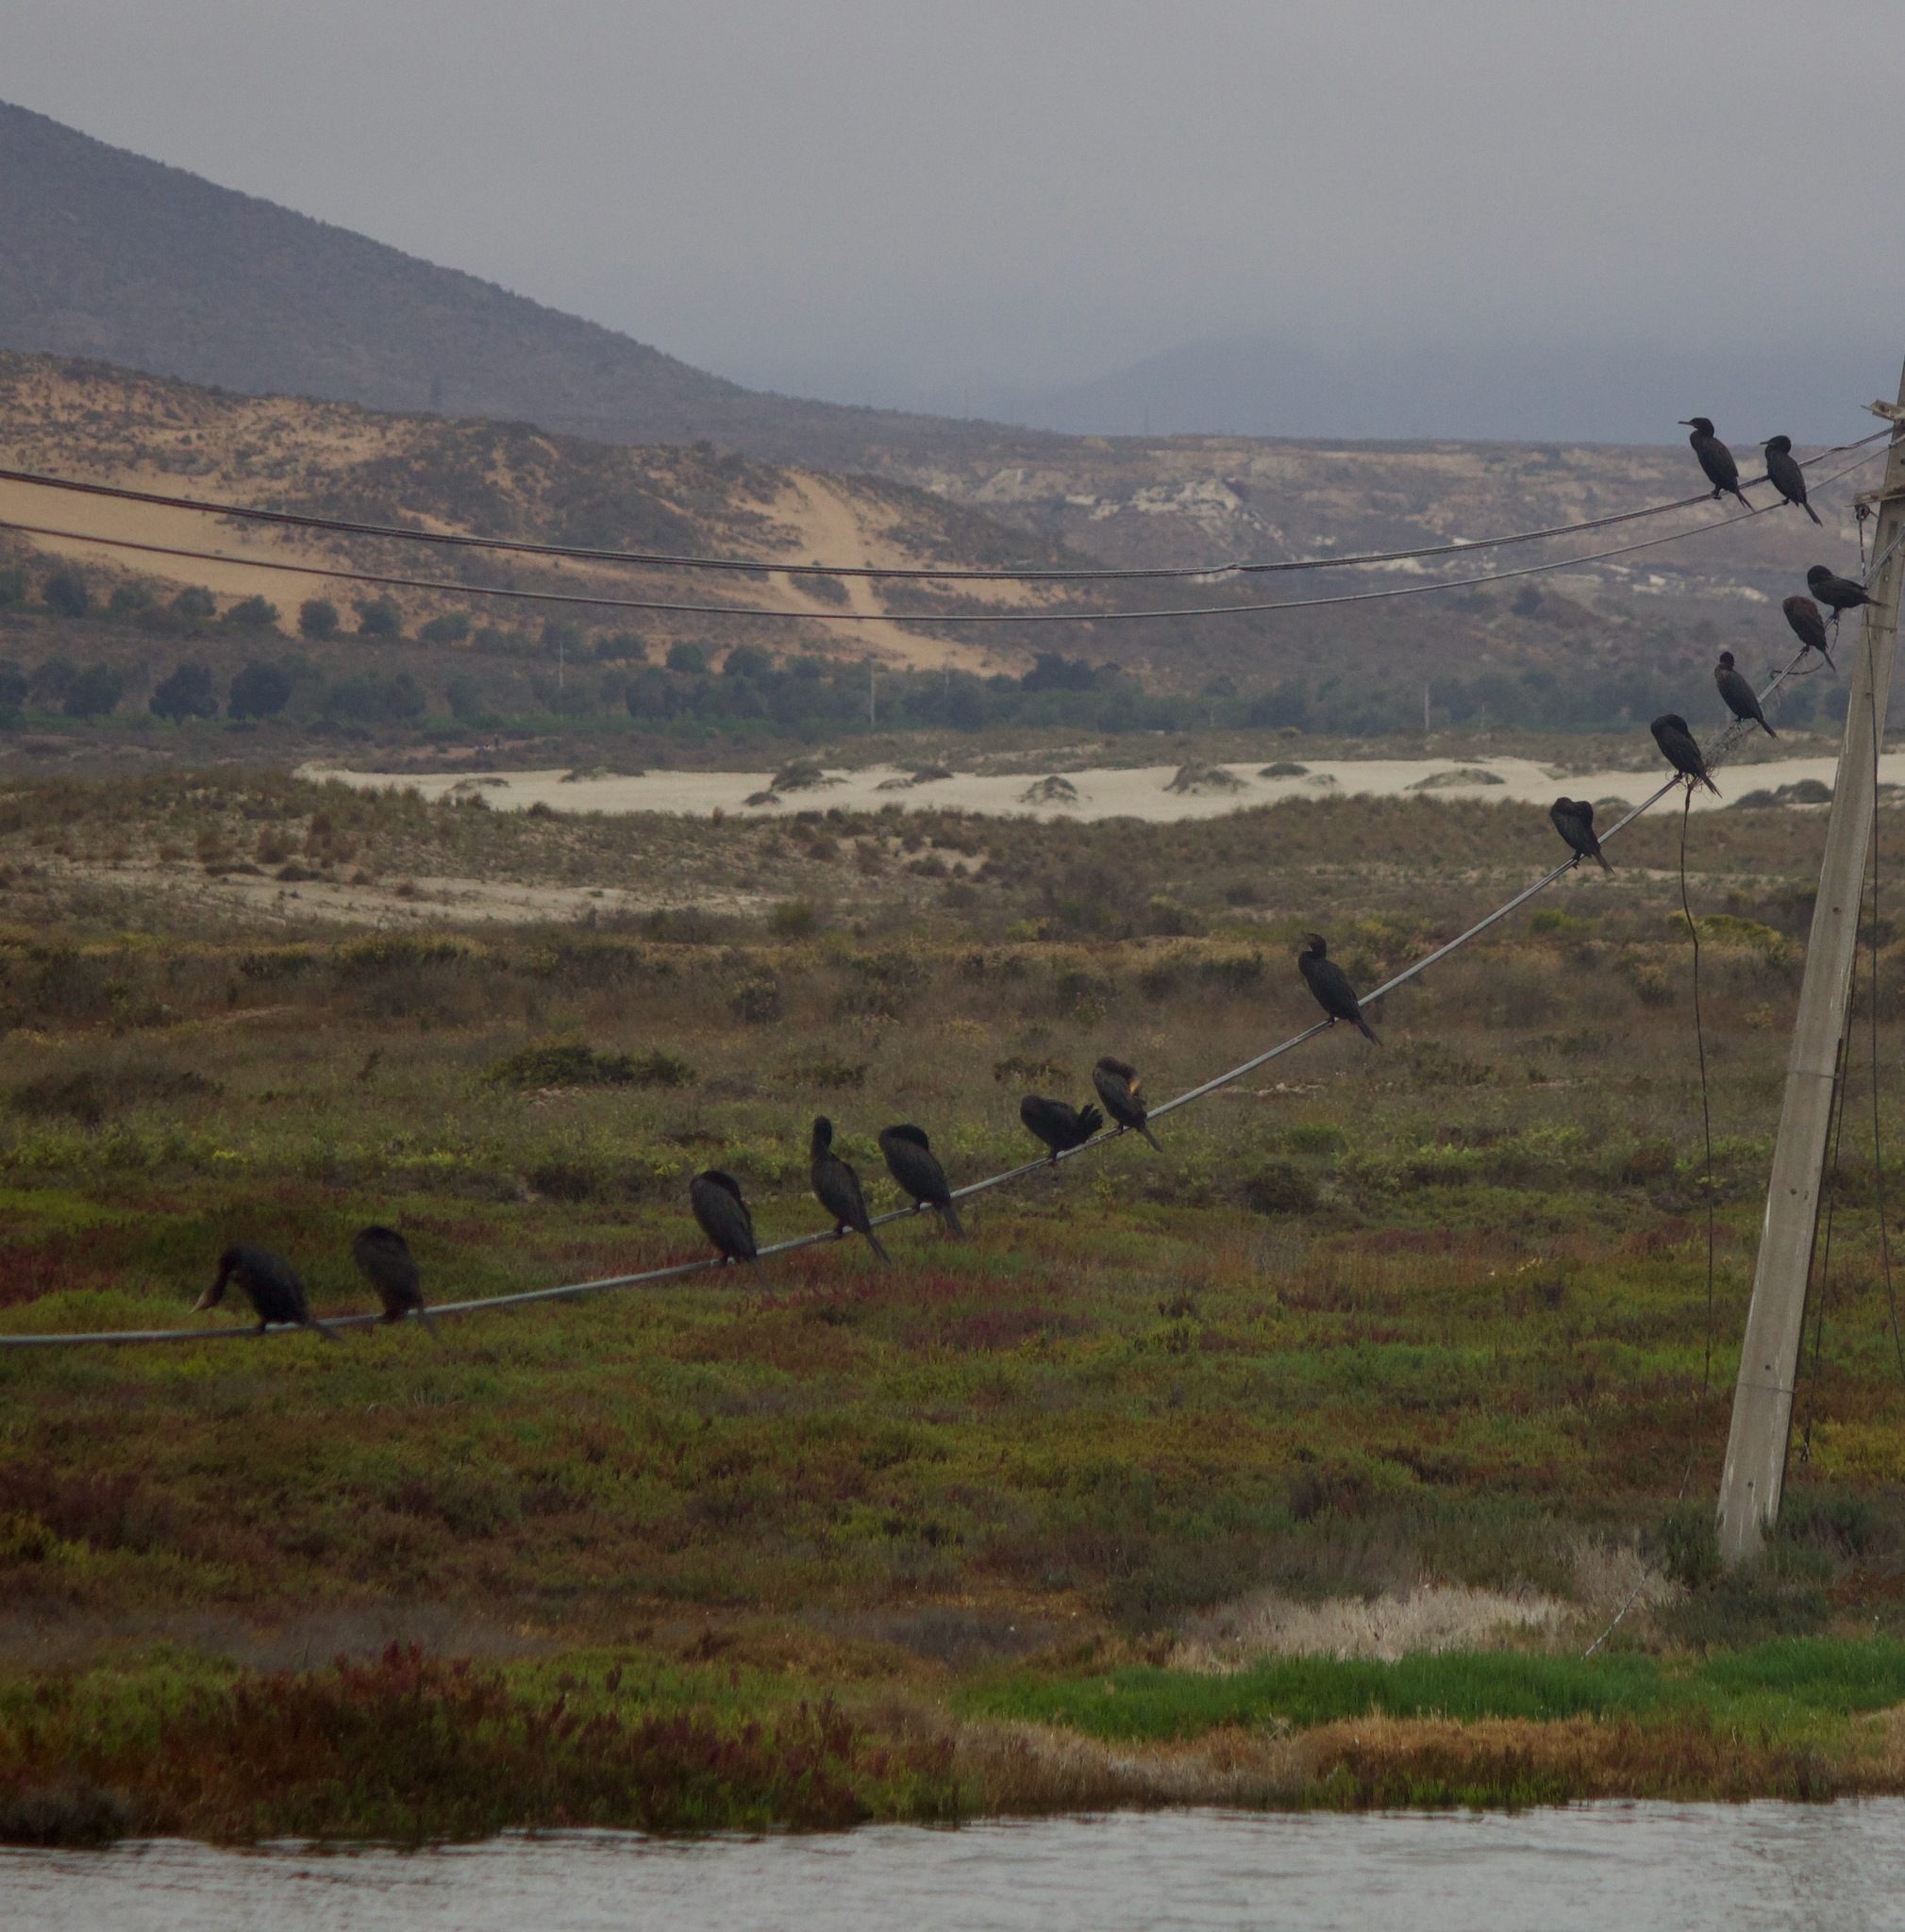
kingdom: Animalia
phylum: Chordata
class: Aves
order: Suliformes
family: Phalacrocoracidae
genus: Phalacrocorax
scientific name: Phalacrocorax brasilianus
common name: Neotropic cormorant
